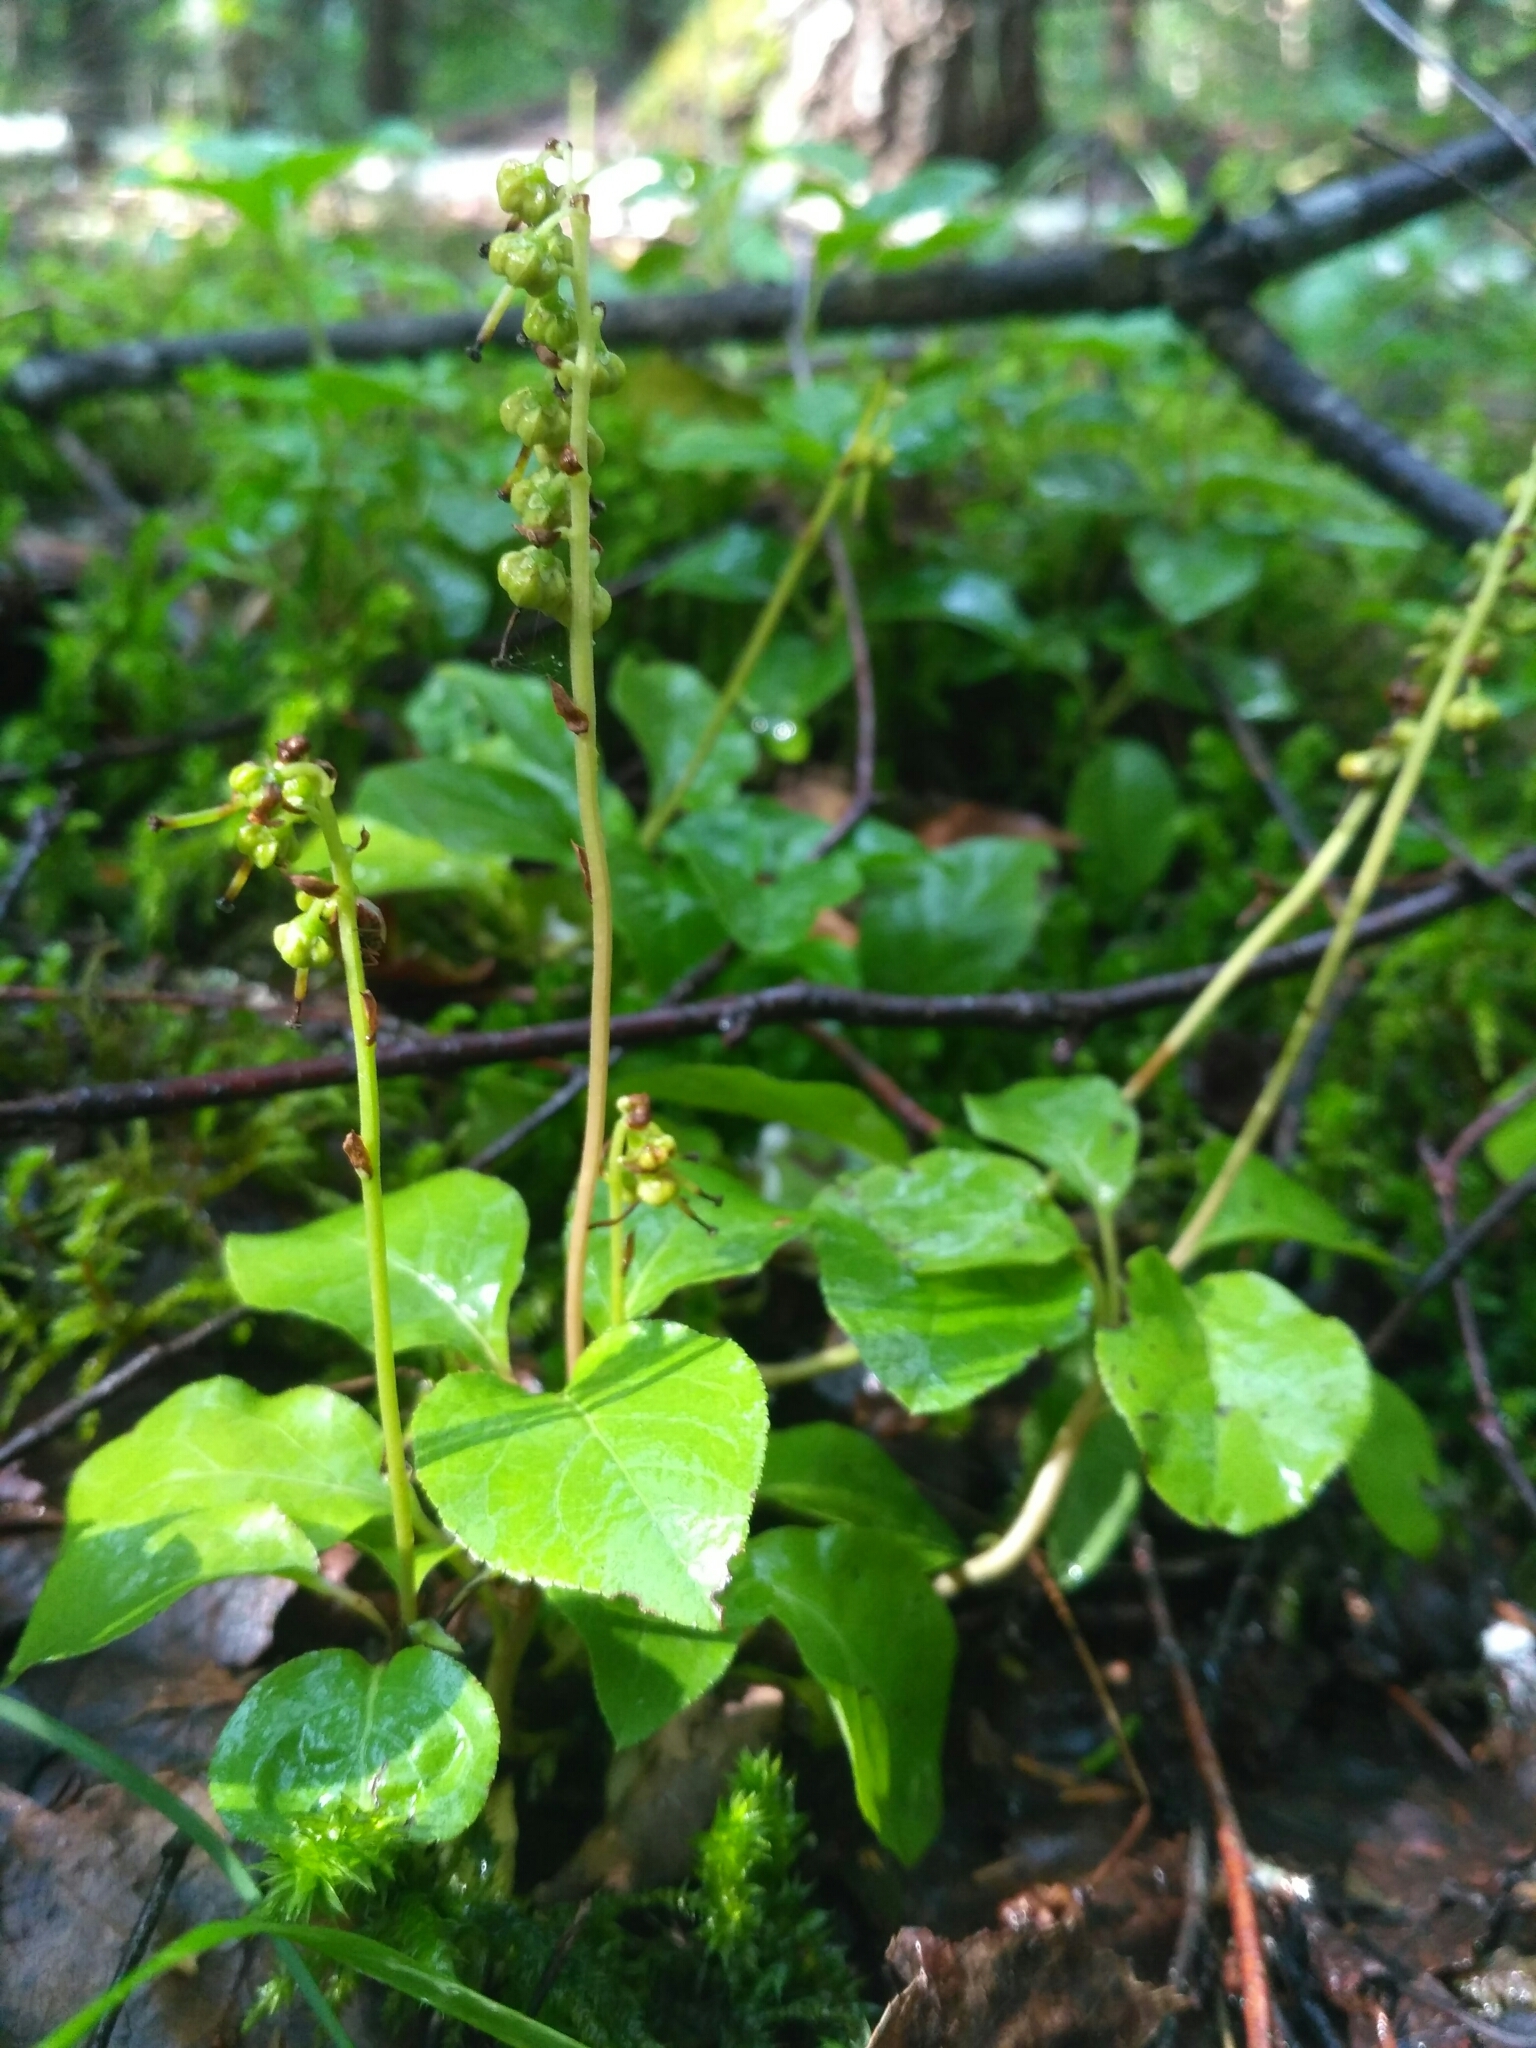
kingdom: Plantae
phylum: Tracheophyta
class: Magnoliopsida
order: Ericales
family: Ericaceae
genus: Orthilia
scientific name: Orthilia secunda
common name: One-sided orthilia
